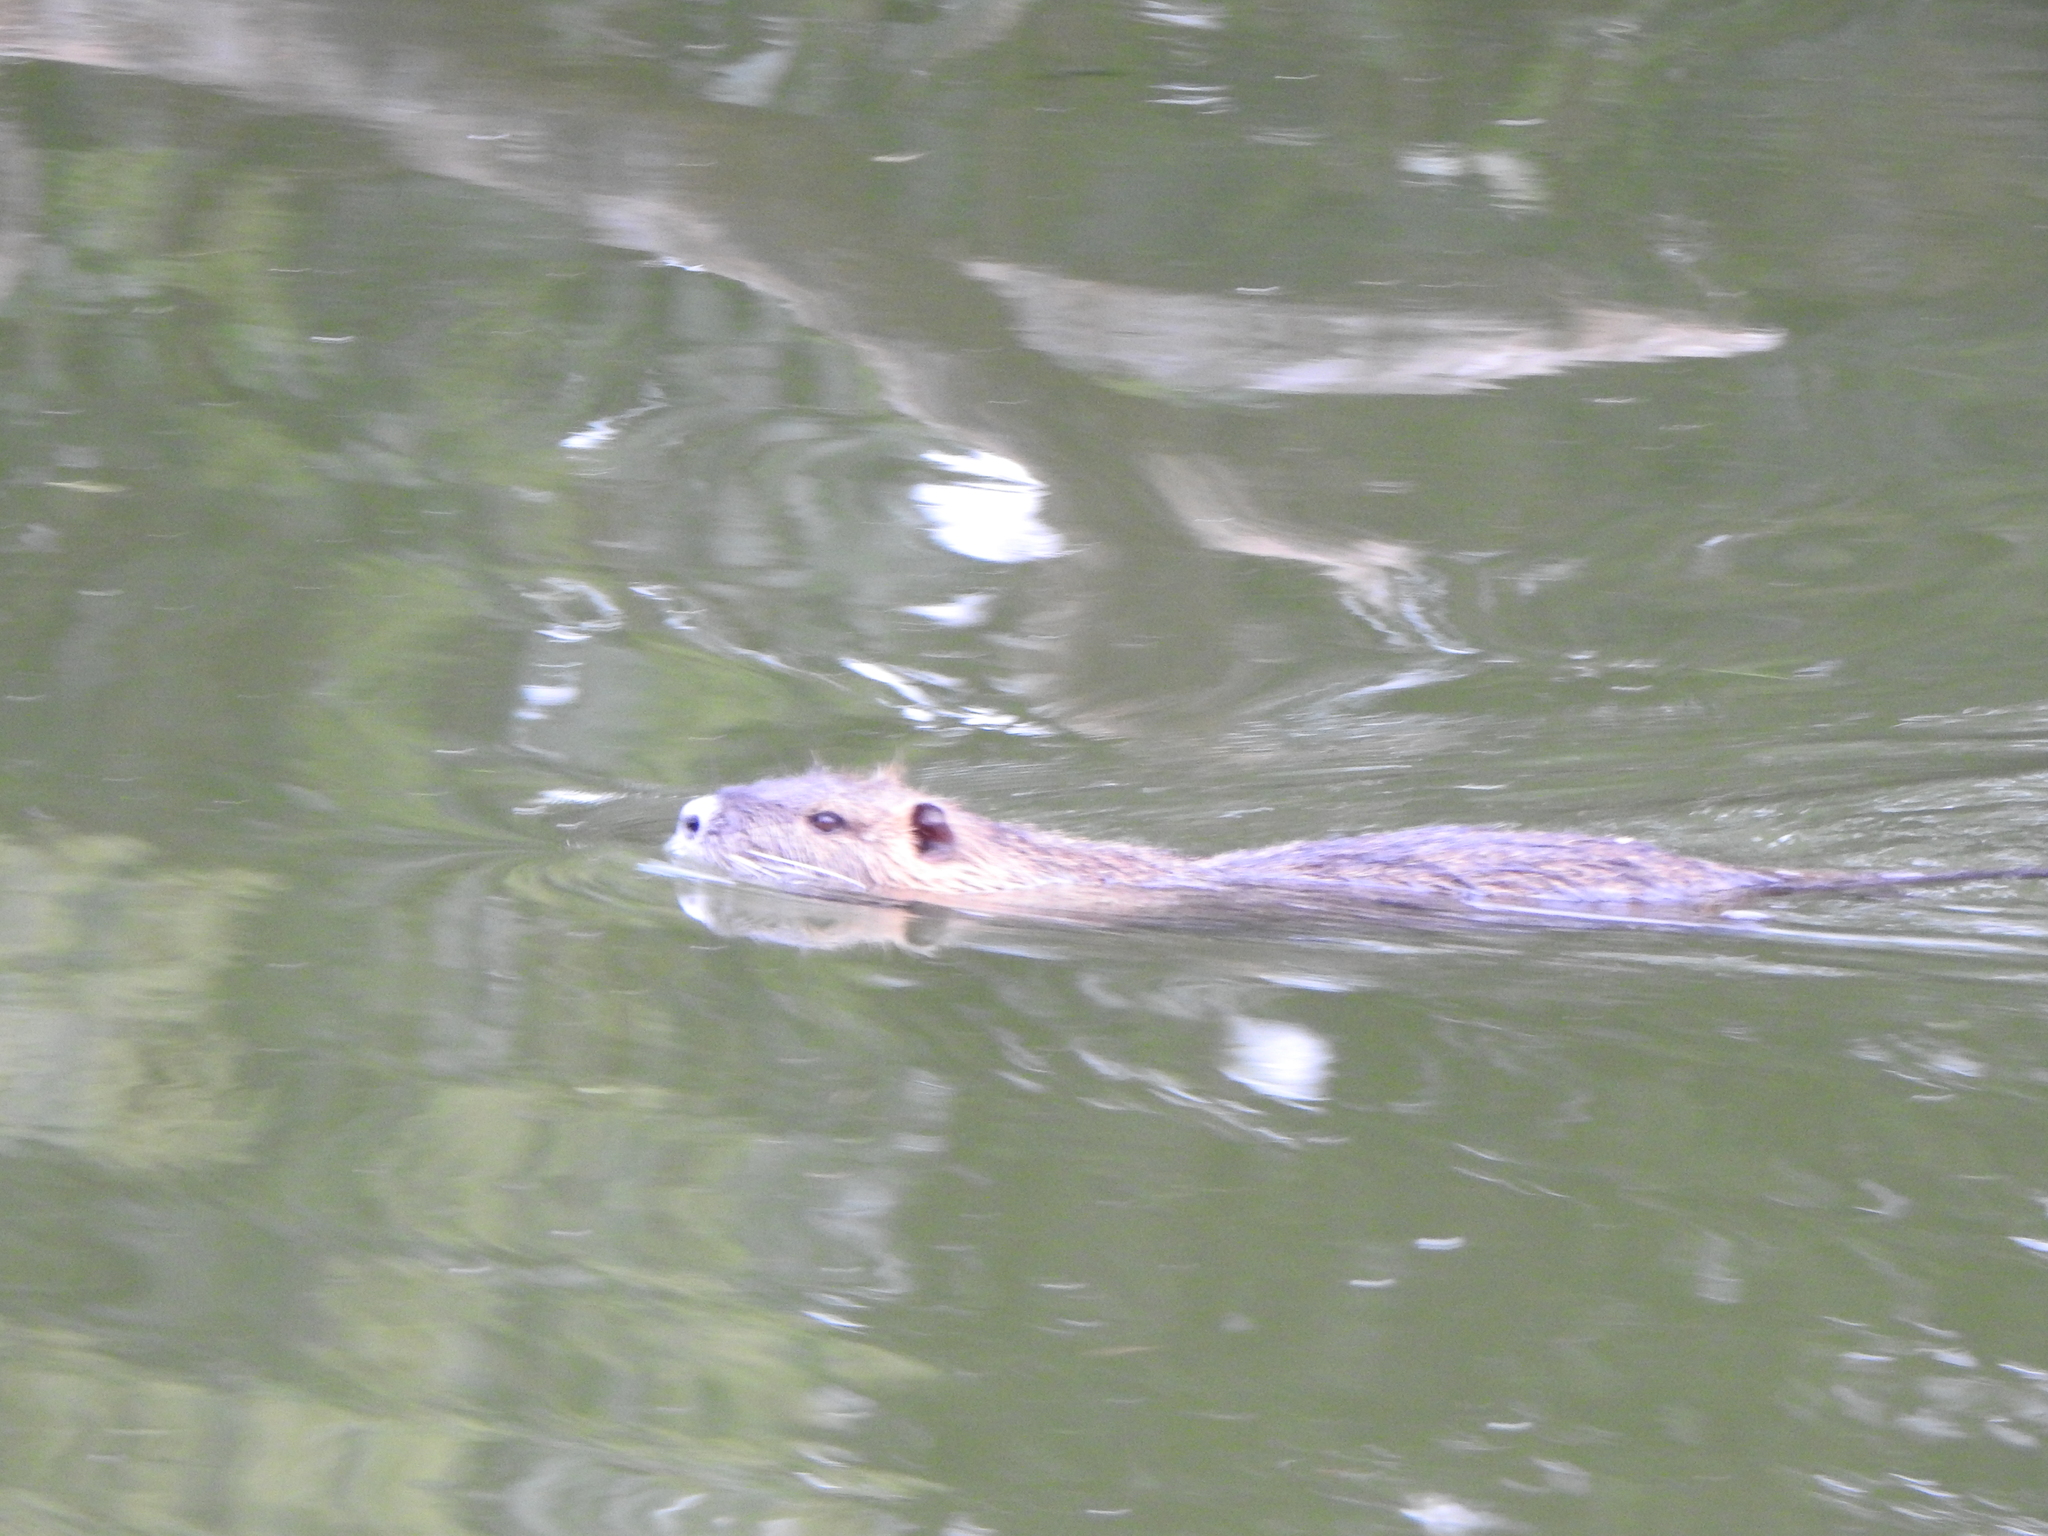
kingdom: Animalia
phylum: Chordata
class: Mammalia
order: Rodentia
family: Myocastoridae
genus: Myocastor
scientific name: Myocastor coypus
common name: Coypu
